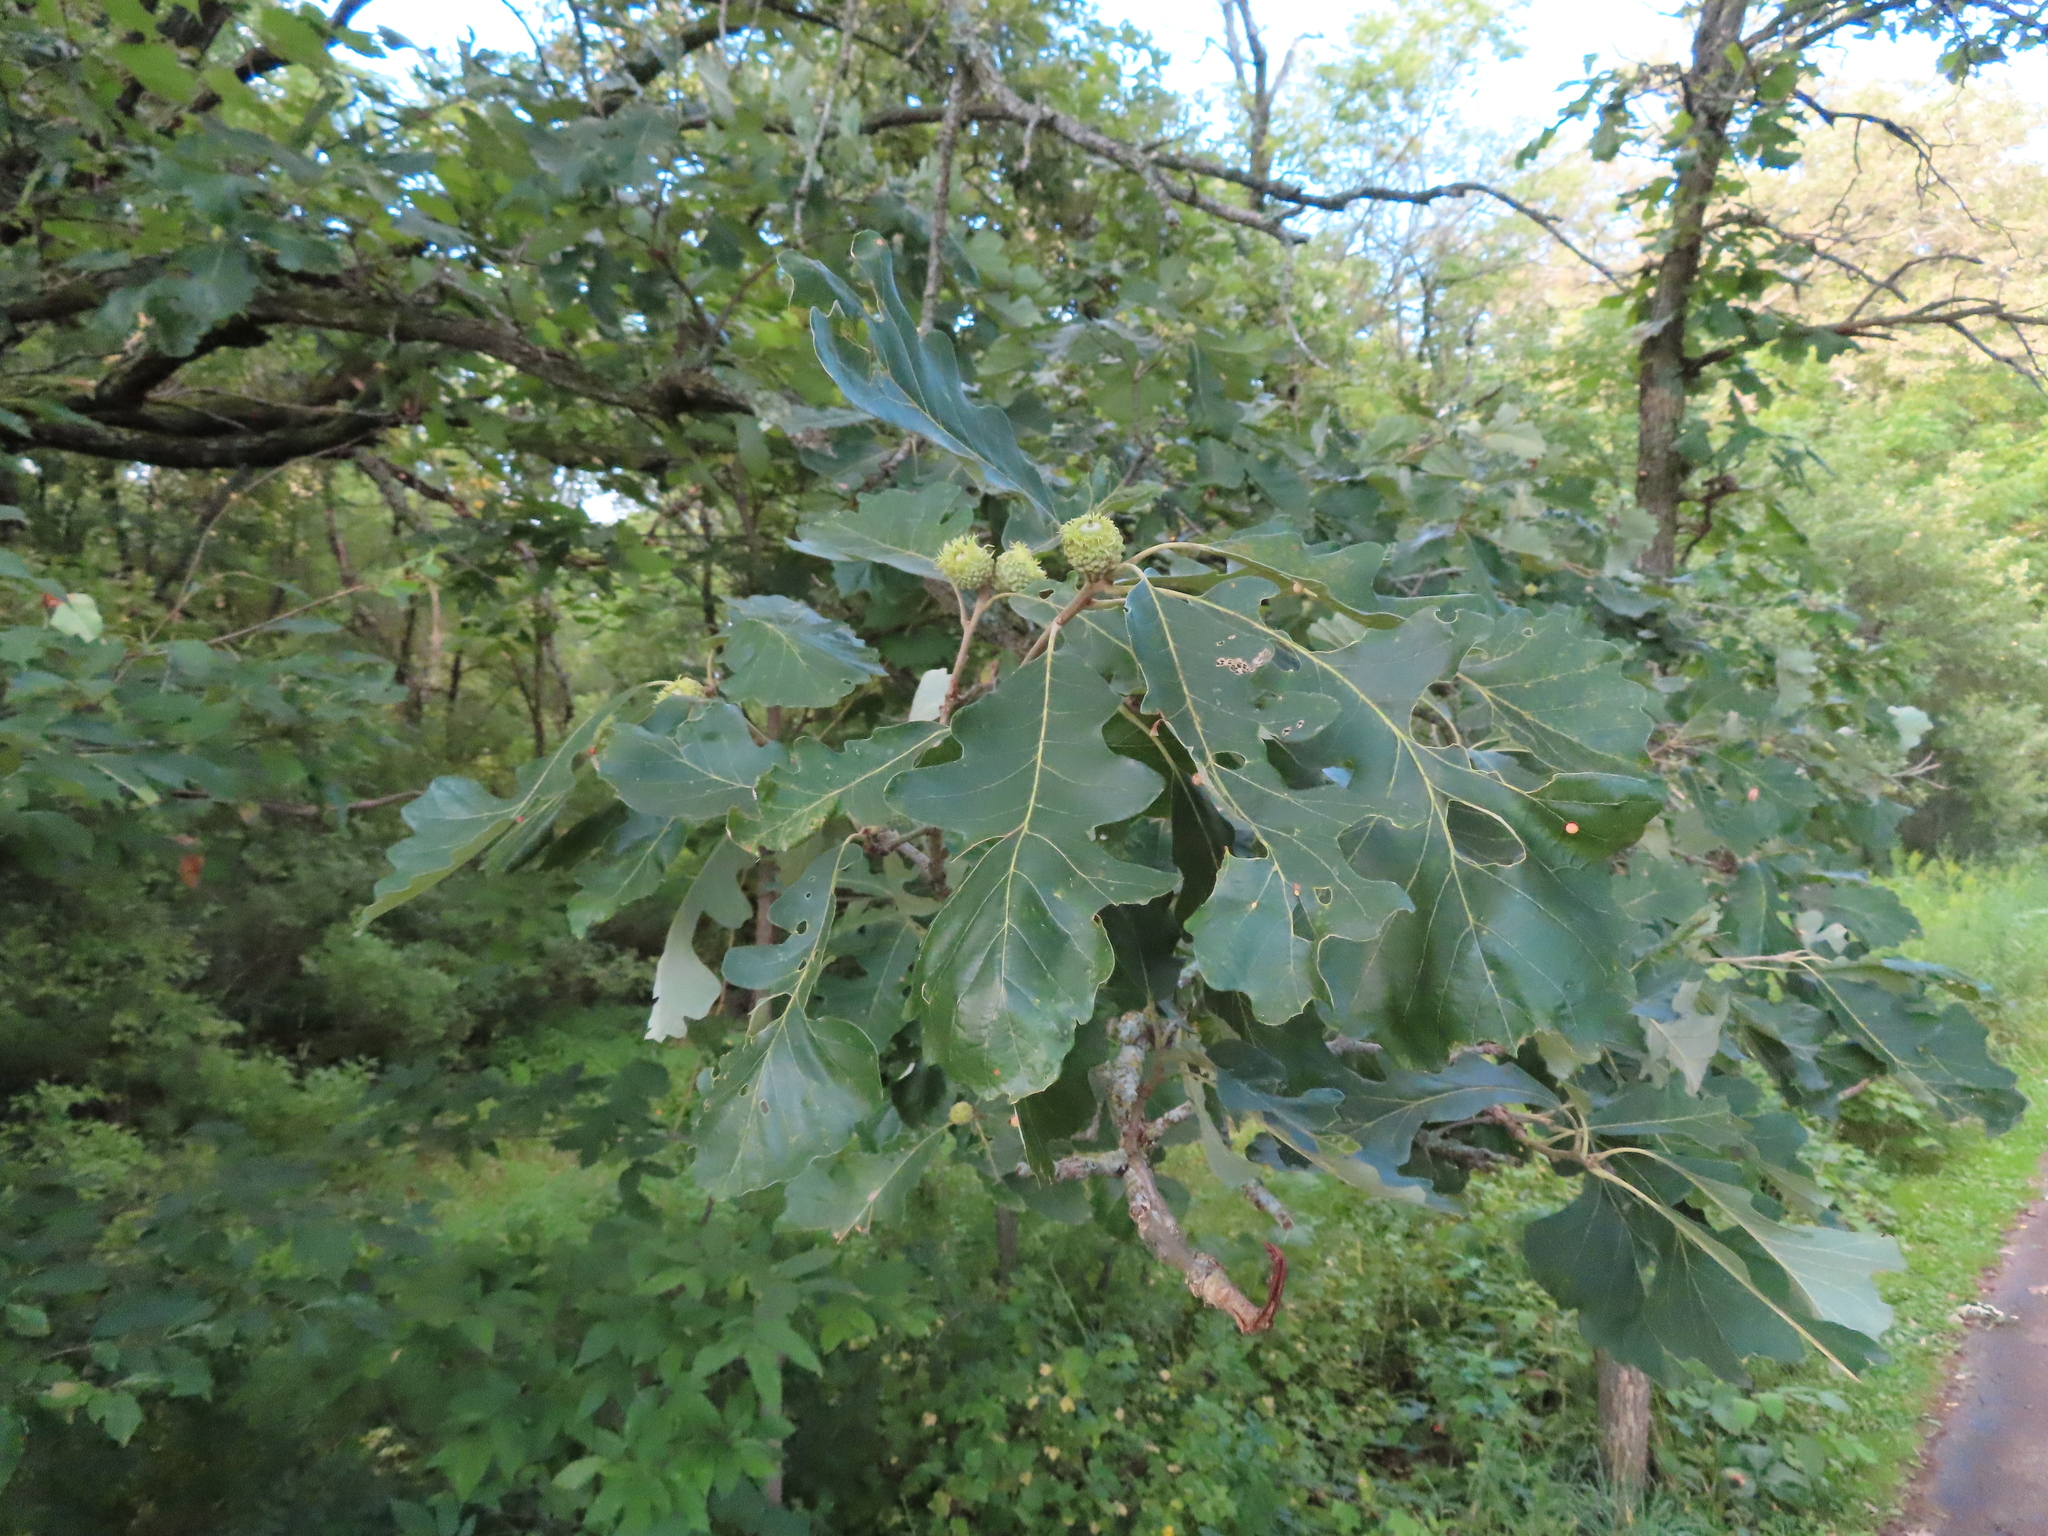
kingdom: Plantae
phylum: Tracheophyta
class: Magnoliopsida
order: Fagales
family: Fagaceae
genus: Quercus
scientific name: Quercus macrocarpa
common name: Bur oak
